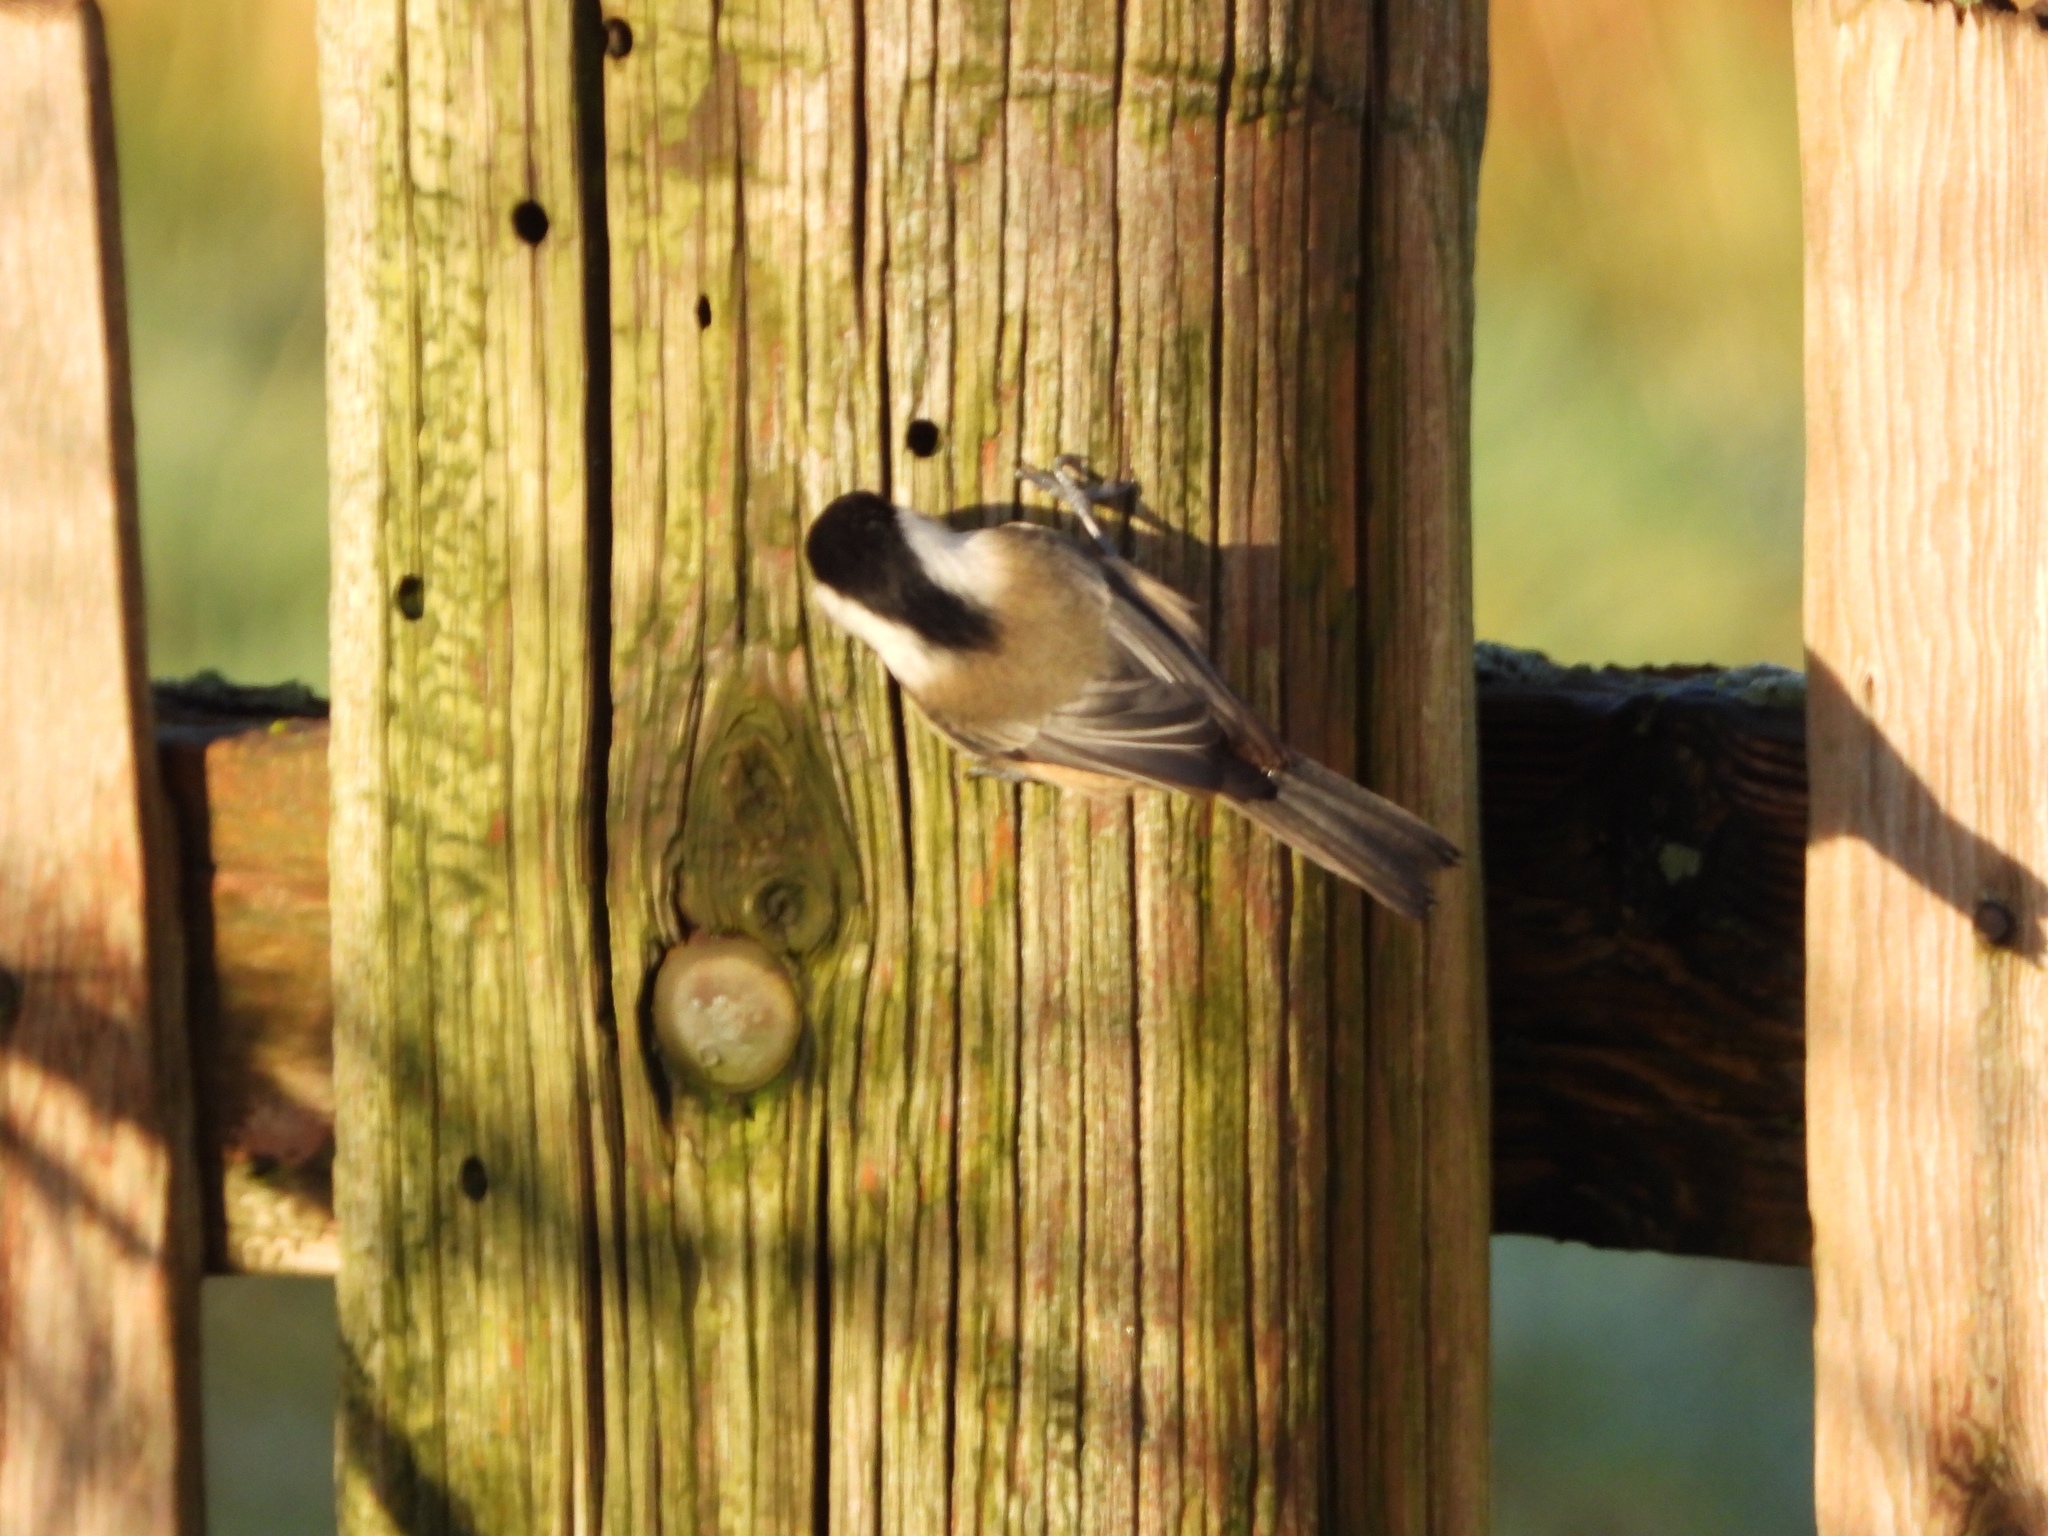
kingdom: Animalia
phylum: Chordata
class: Aves
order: Passeriformes
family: Paridae
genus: Poecile
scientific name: Poecile atricapillus
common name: Black-capped chickadee
